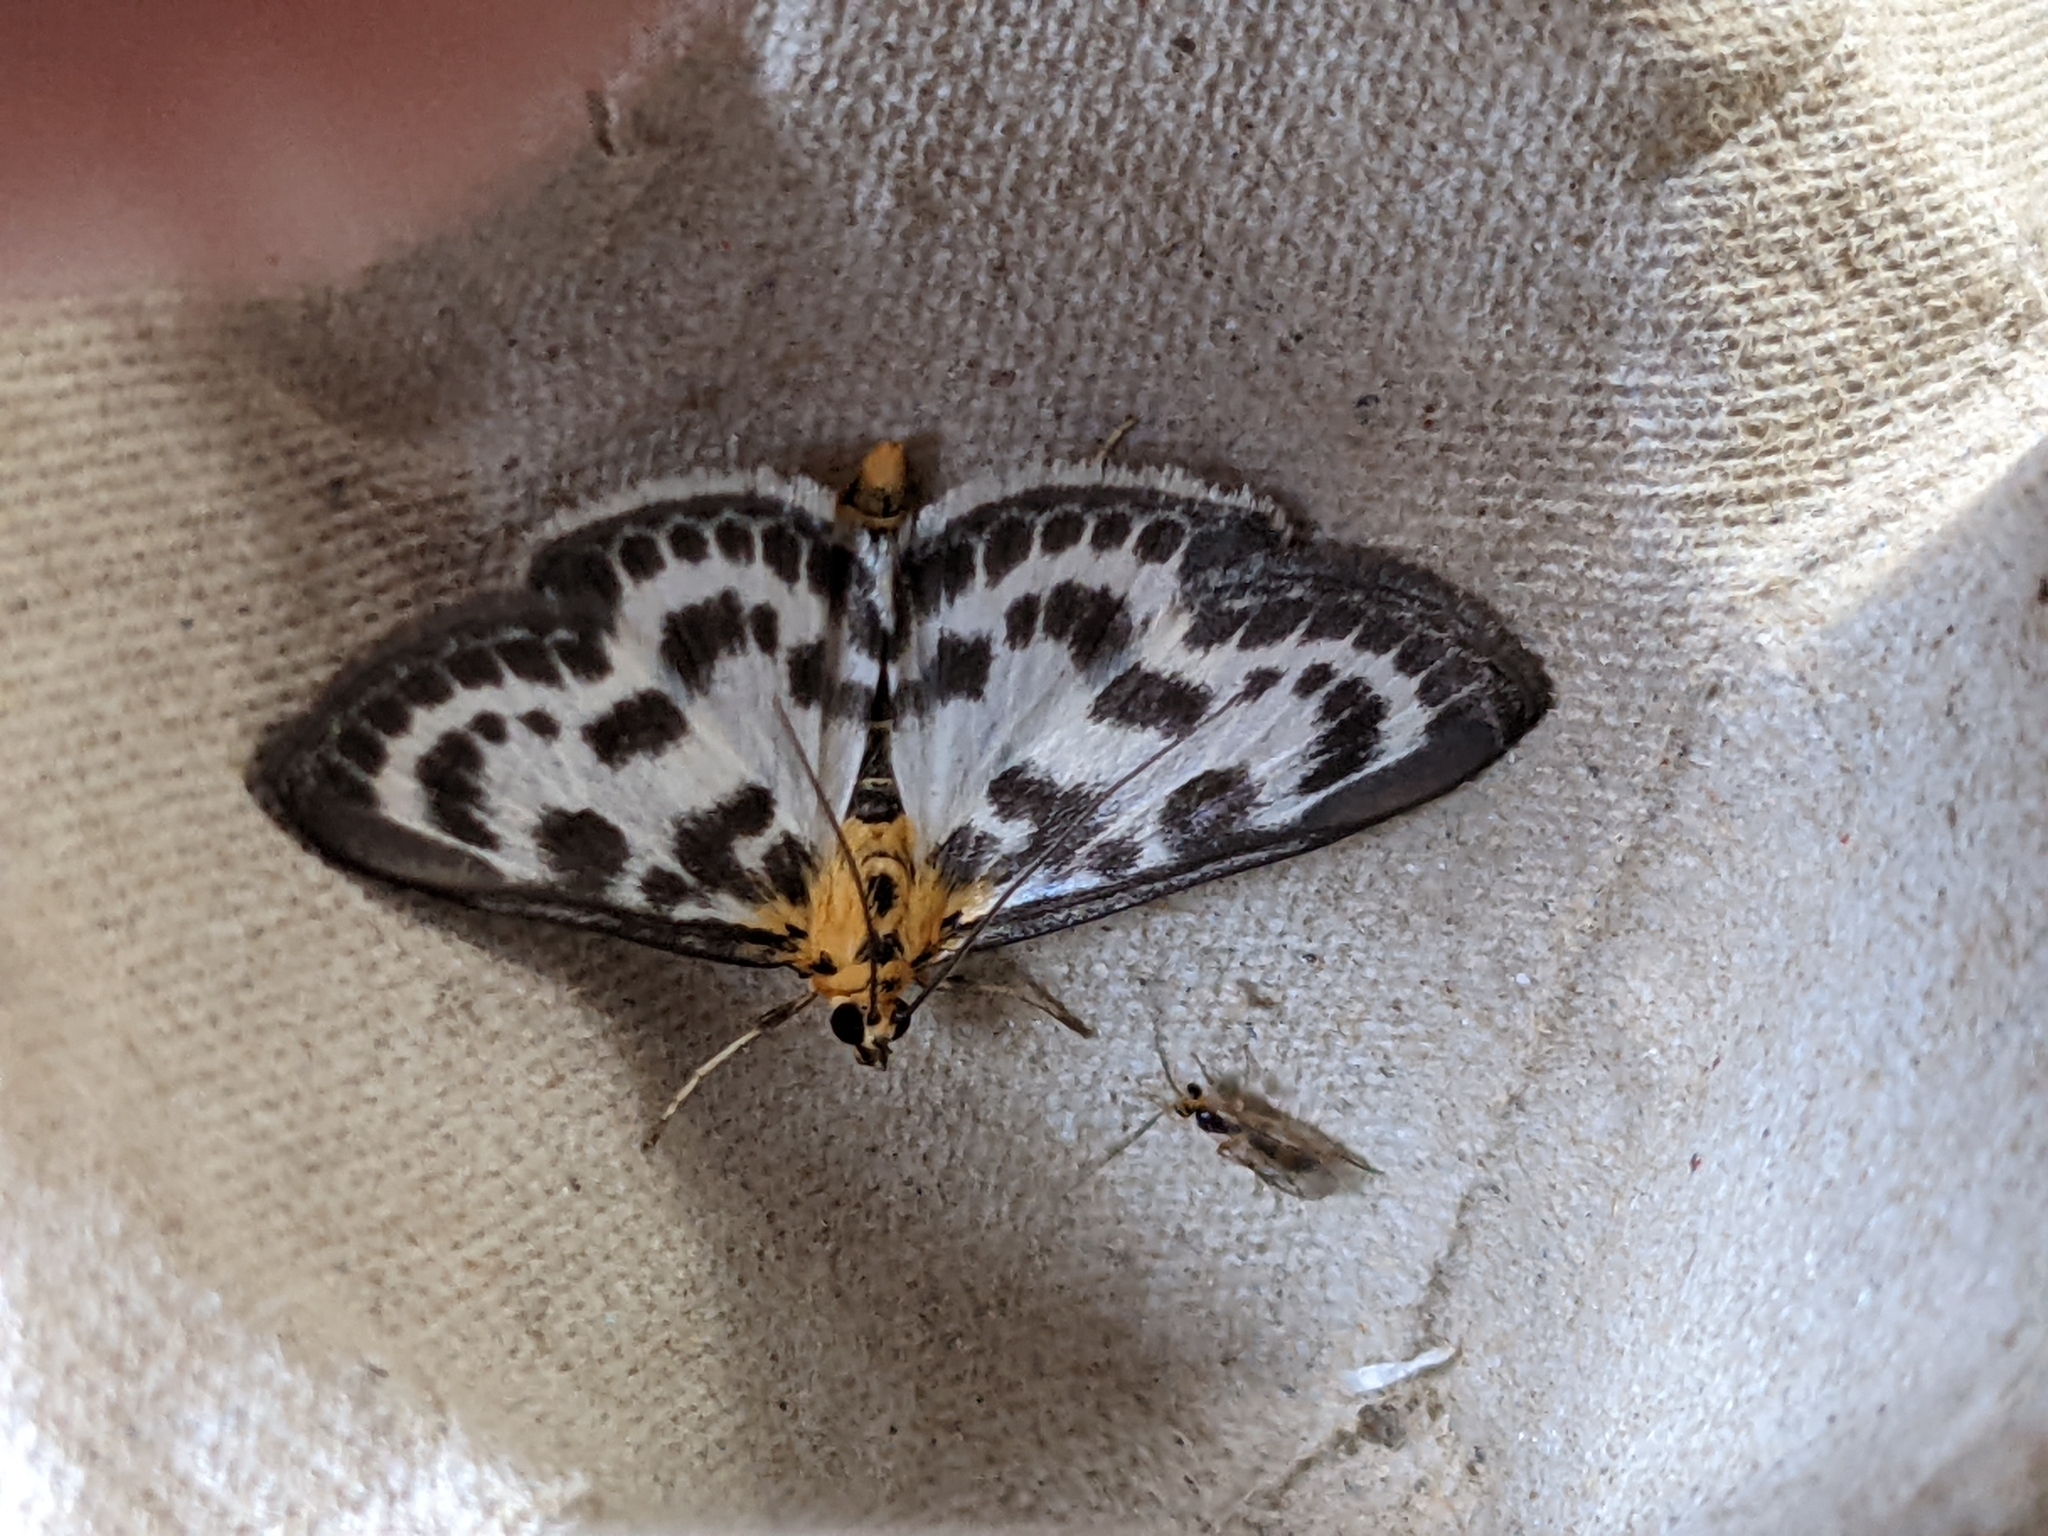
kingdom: Animalia
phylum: Arthropoda
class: Insecta
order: Lepidoptera
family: Crambidae
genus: Anania
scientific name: Anania hortulata
